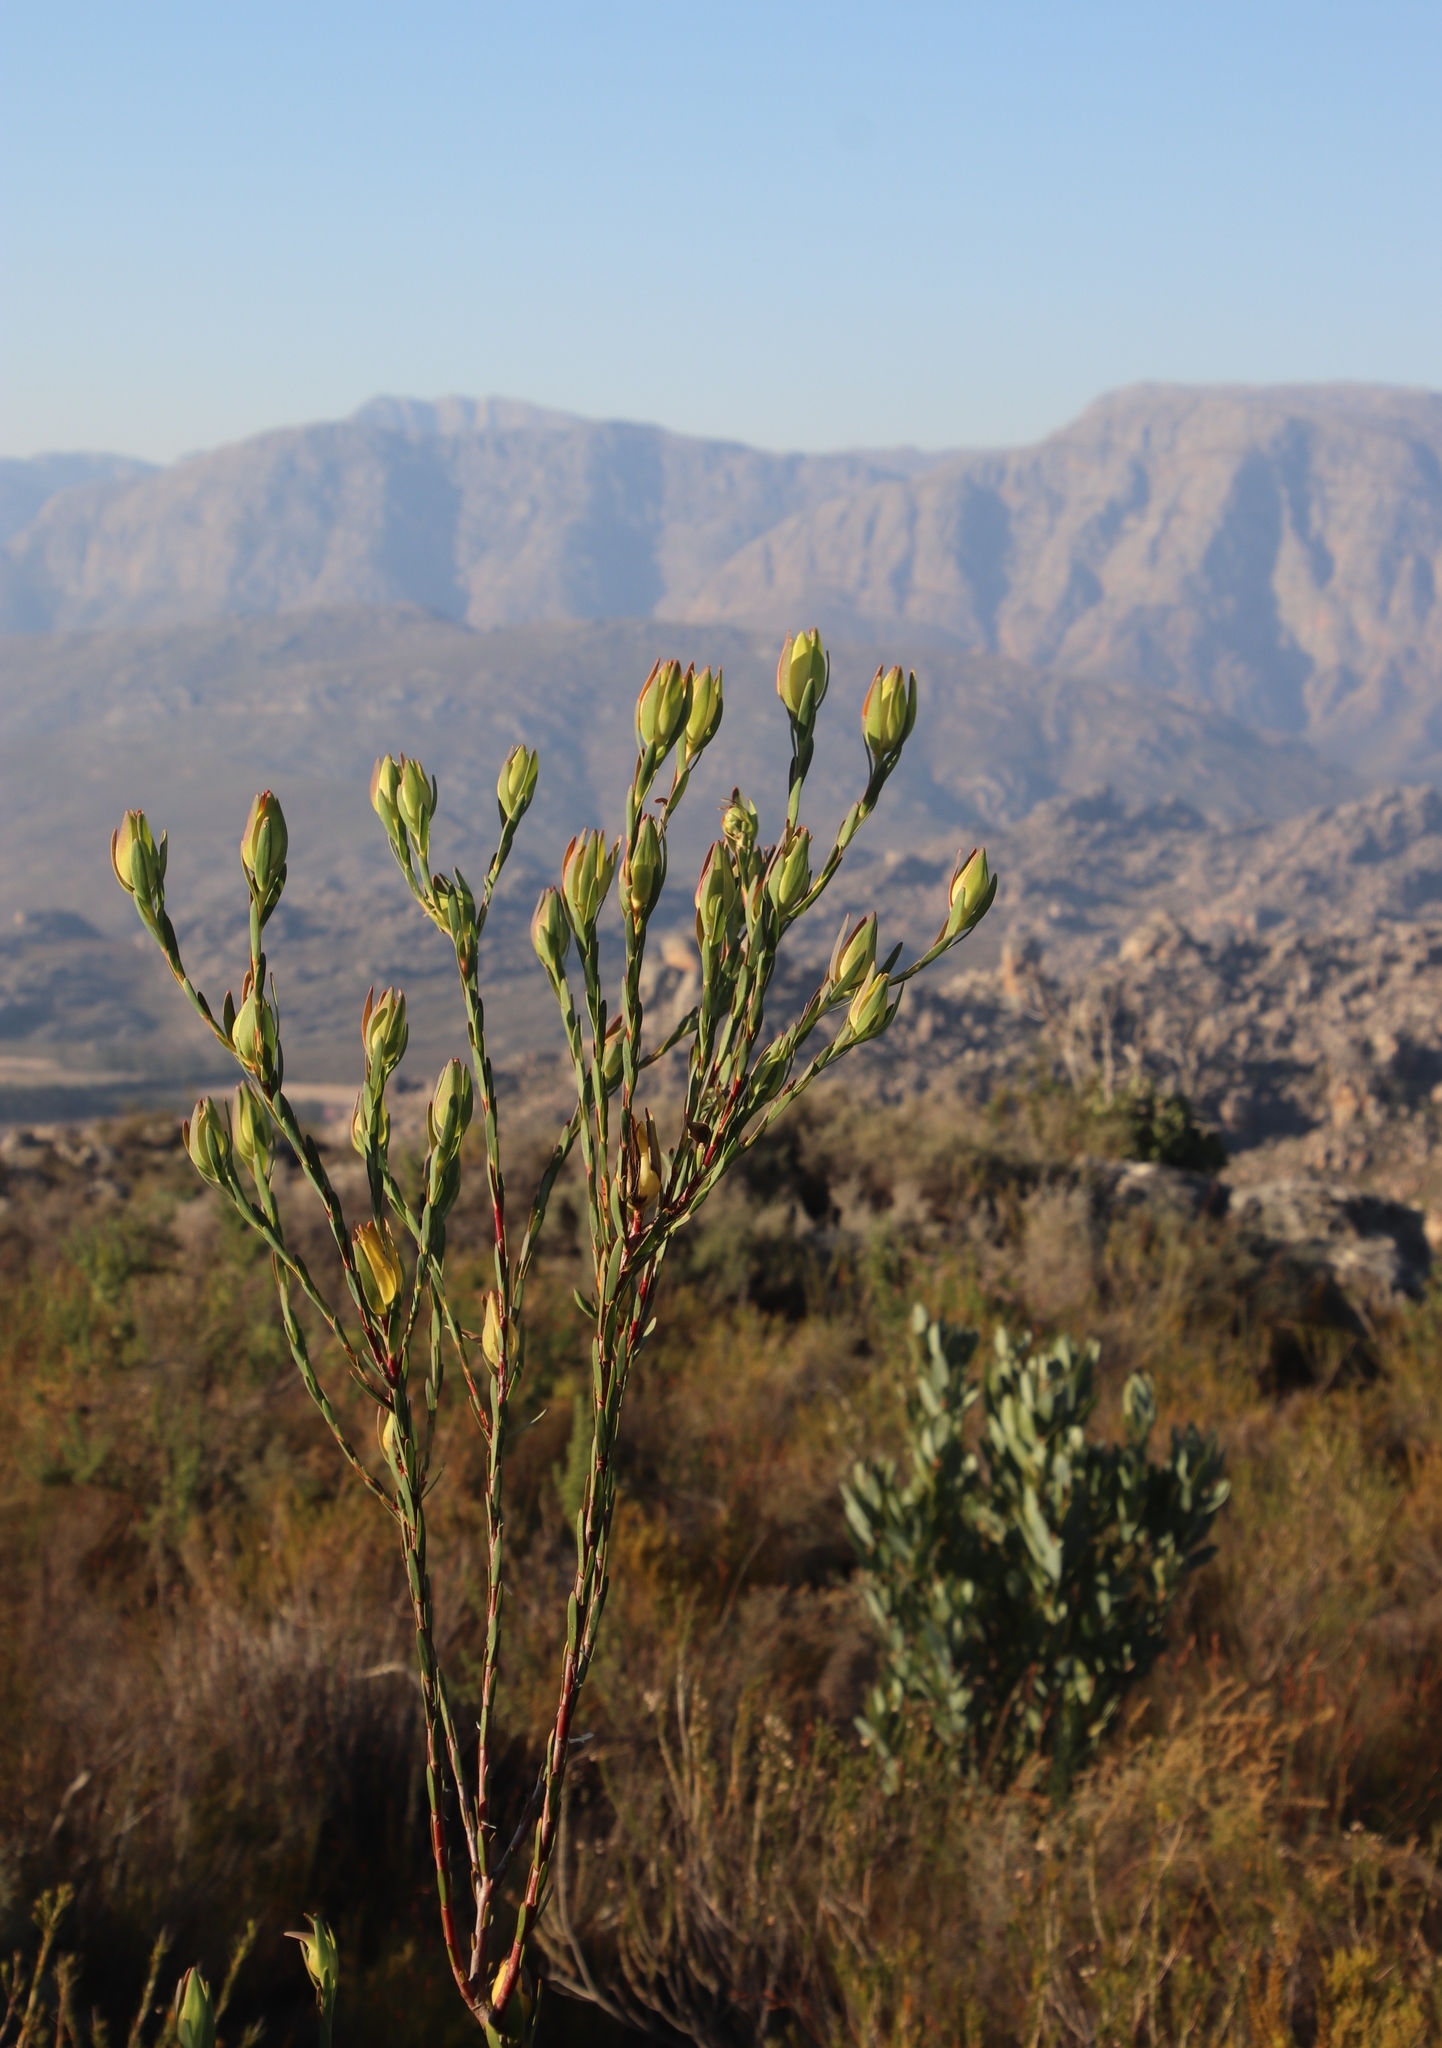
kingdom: Plantae
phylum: Tracheophyta
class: Magnoliopsida
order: Proteales
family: Proteaceae
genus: Leucadendron
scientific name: Leucadendron diemontianum
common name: Visgat conebush
